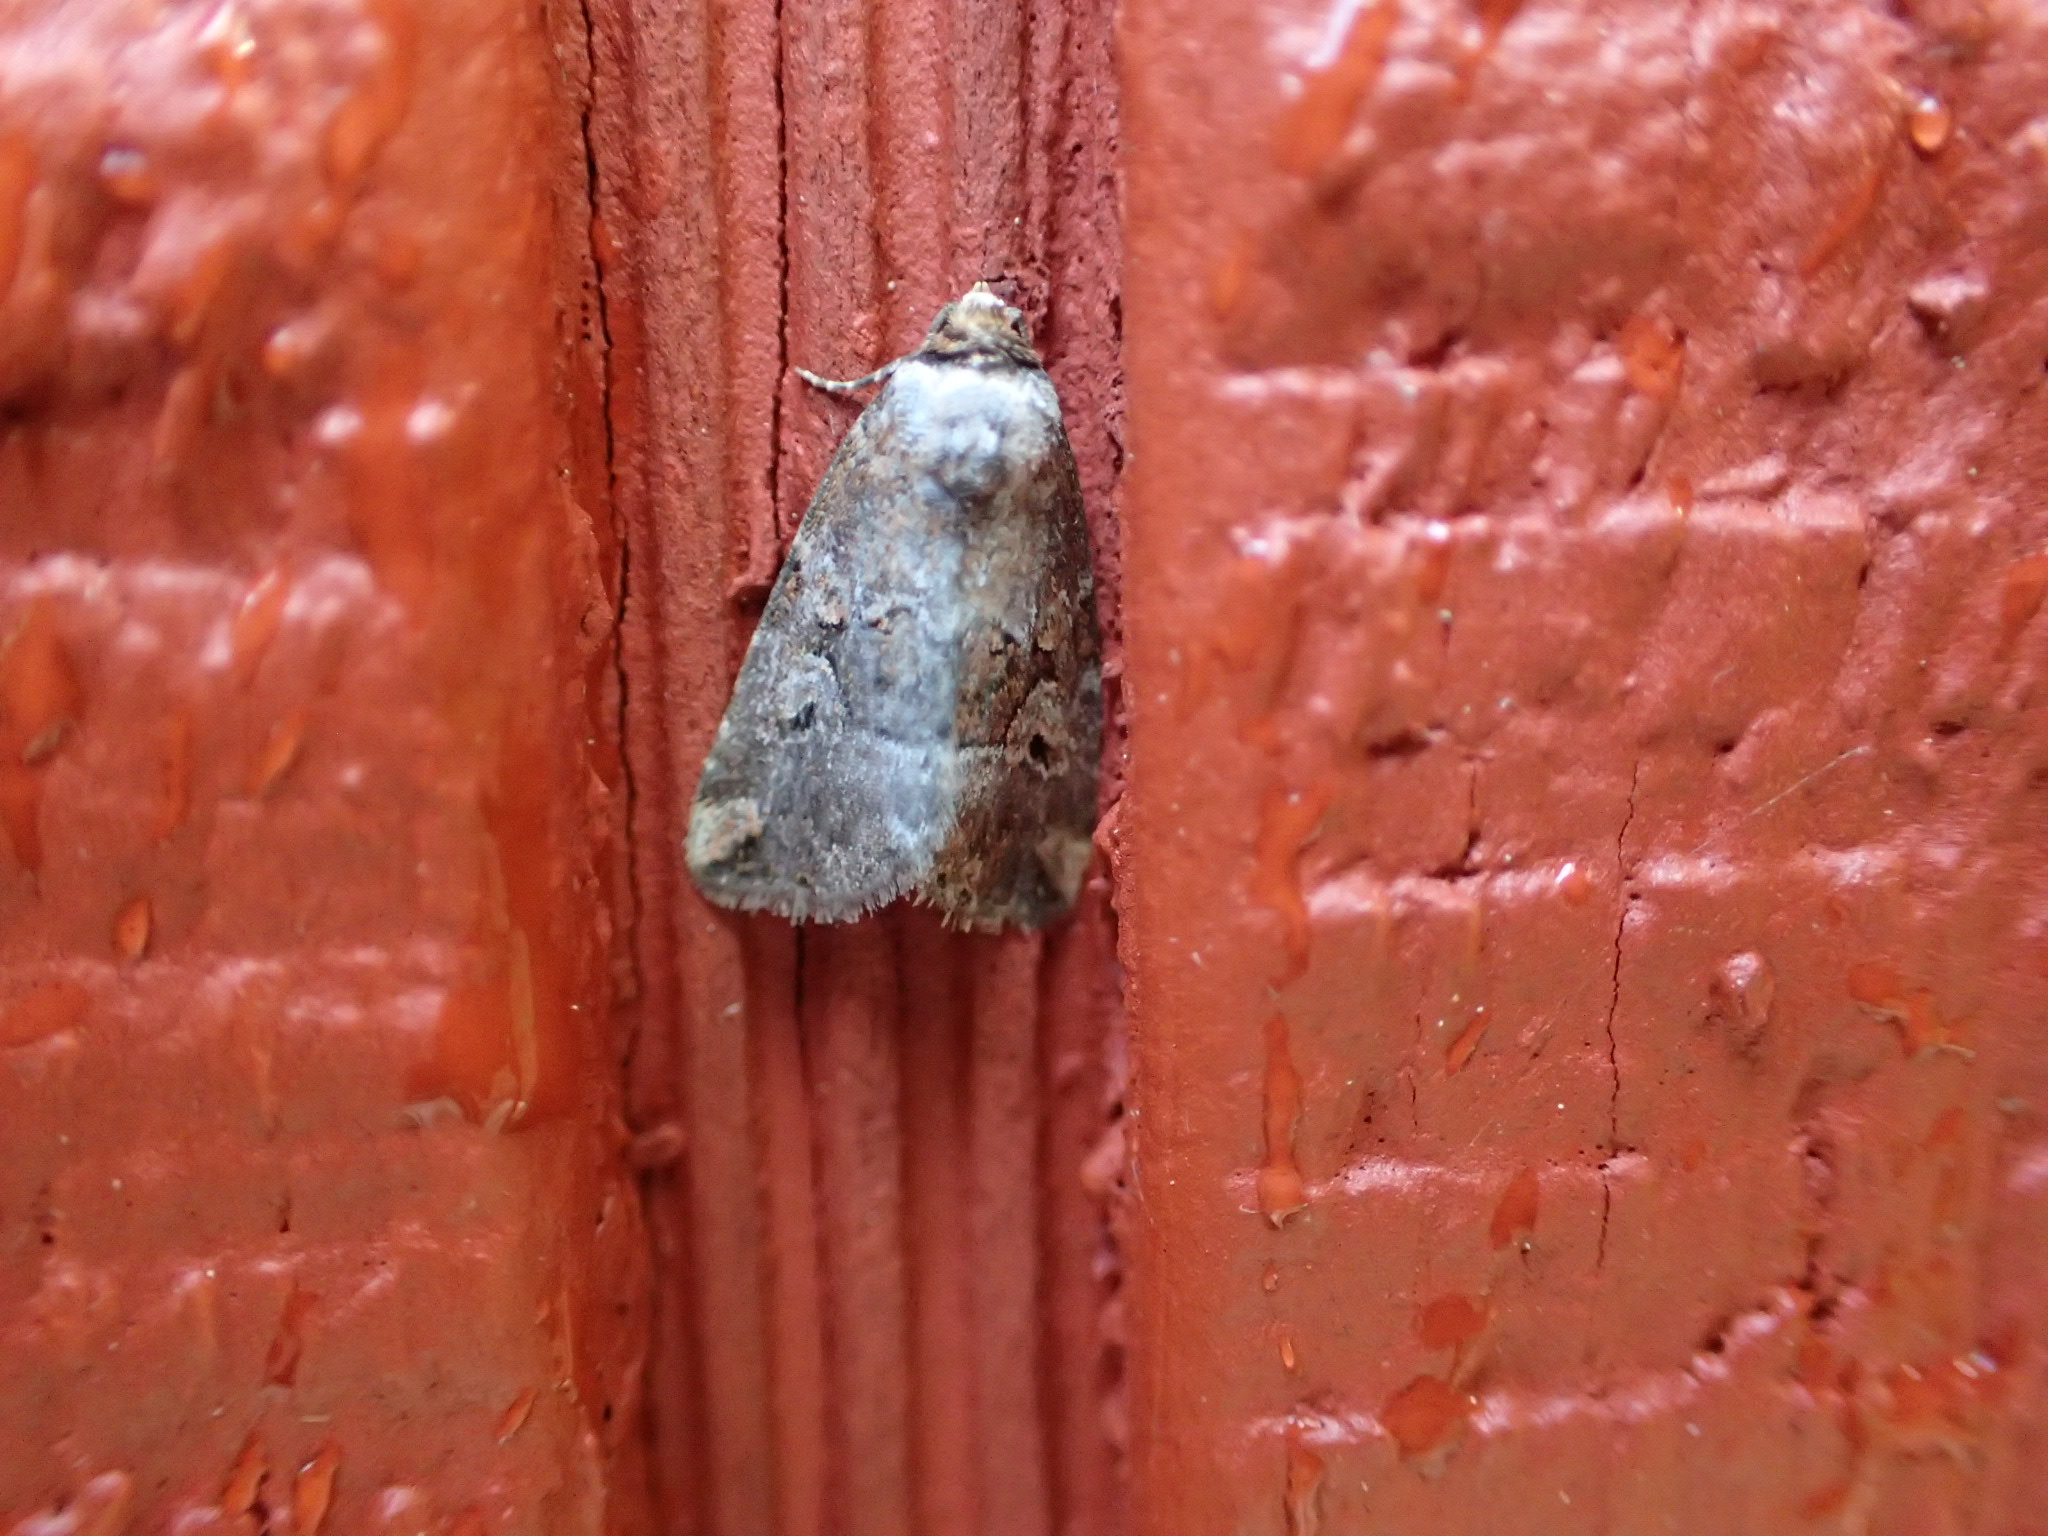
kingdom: Animalia
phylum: Arthropoda
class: Insecta
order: Lepidoptera
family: Noctuidae
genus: Elaphria
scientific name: Elaphria alapallida
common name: Pale-winged midget
